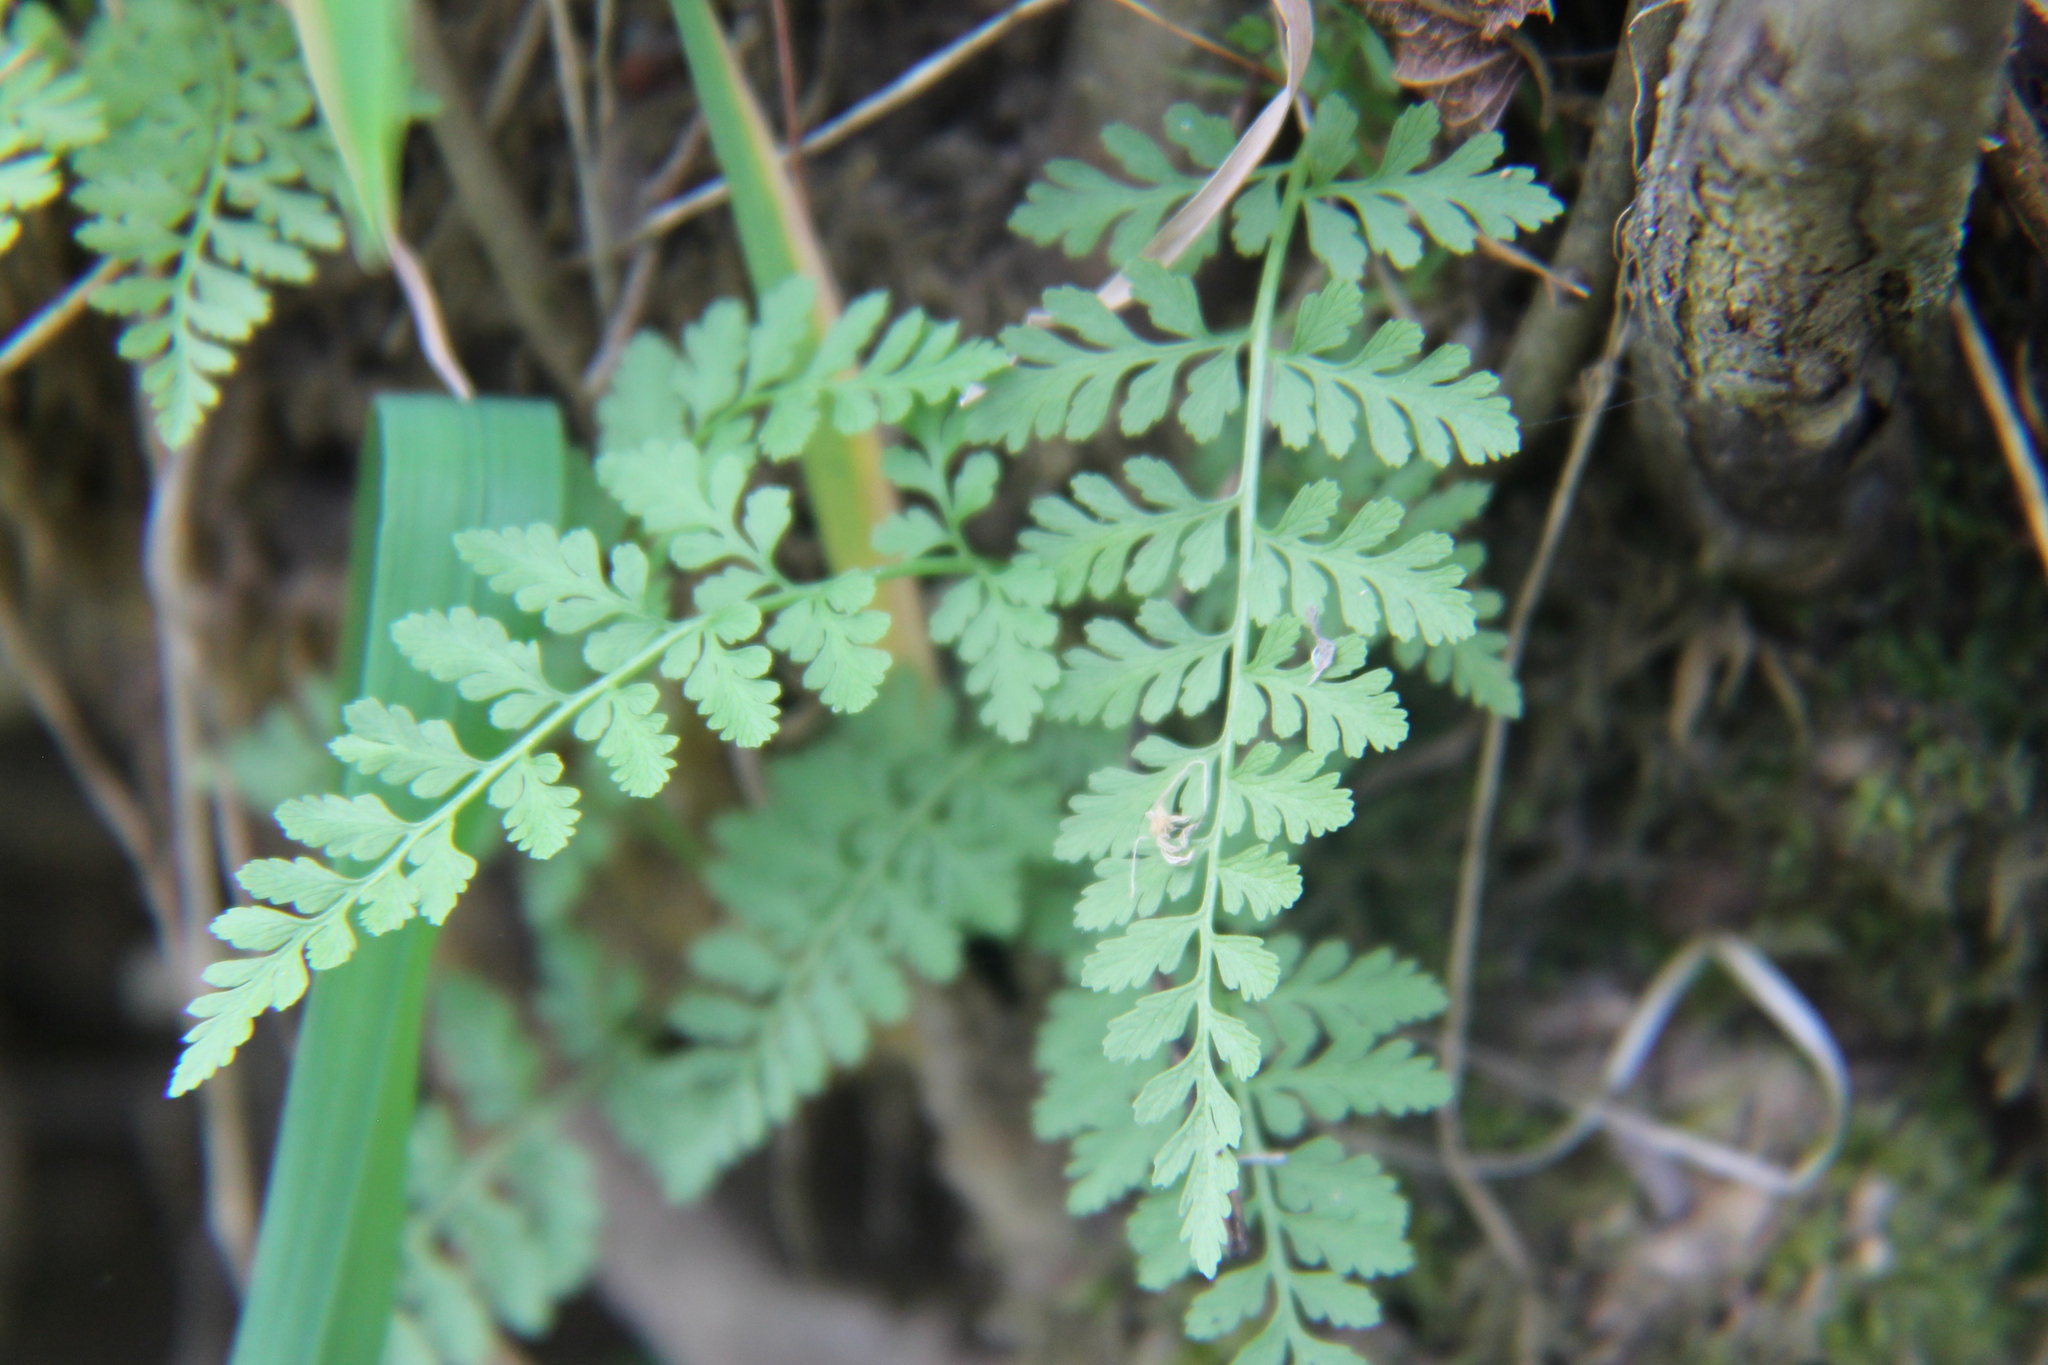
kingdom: Plantae
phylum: Tracheophyta
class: Polypodiopsida
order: Polypodiales
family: Cystopteridaceae
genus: Cystopteris
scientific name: Cystopteris protrusa
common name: Lowland brittle fern
